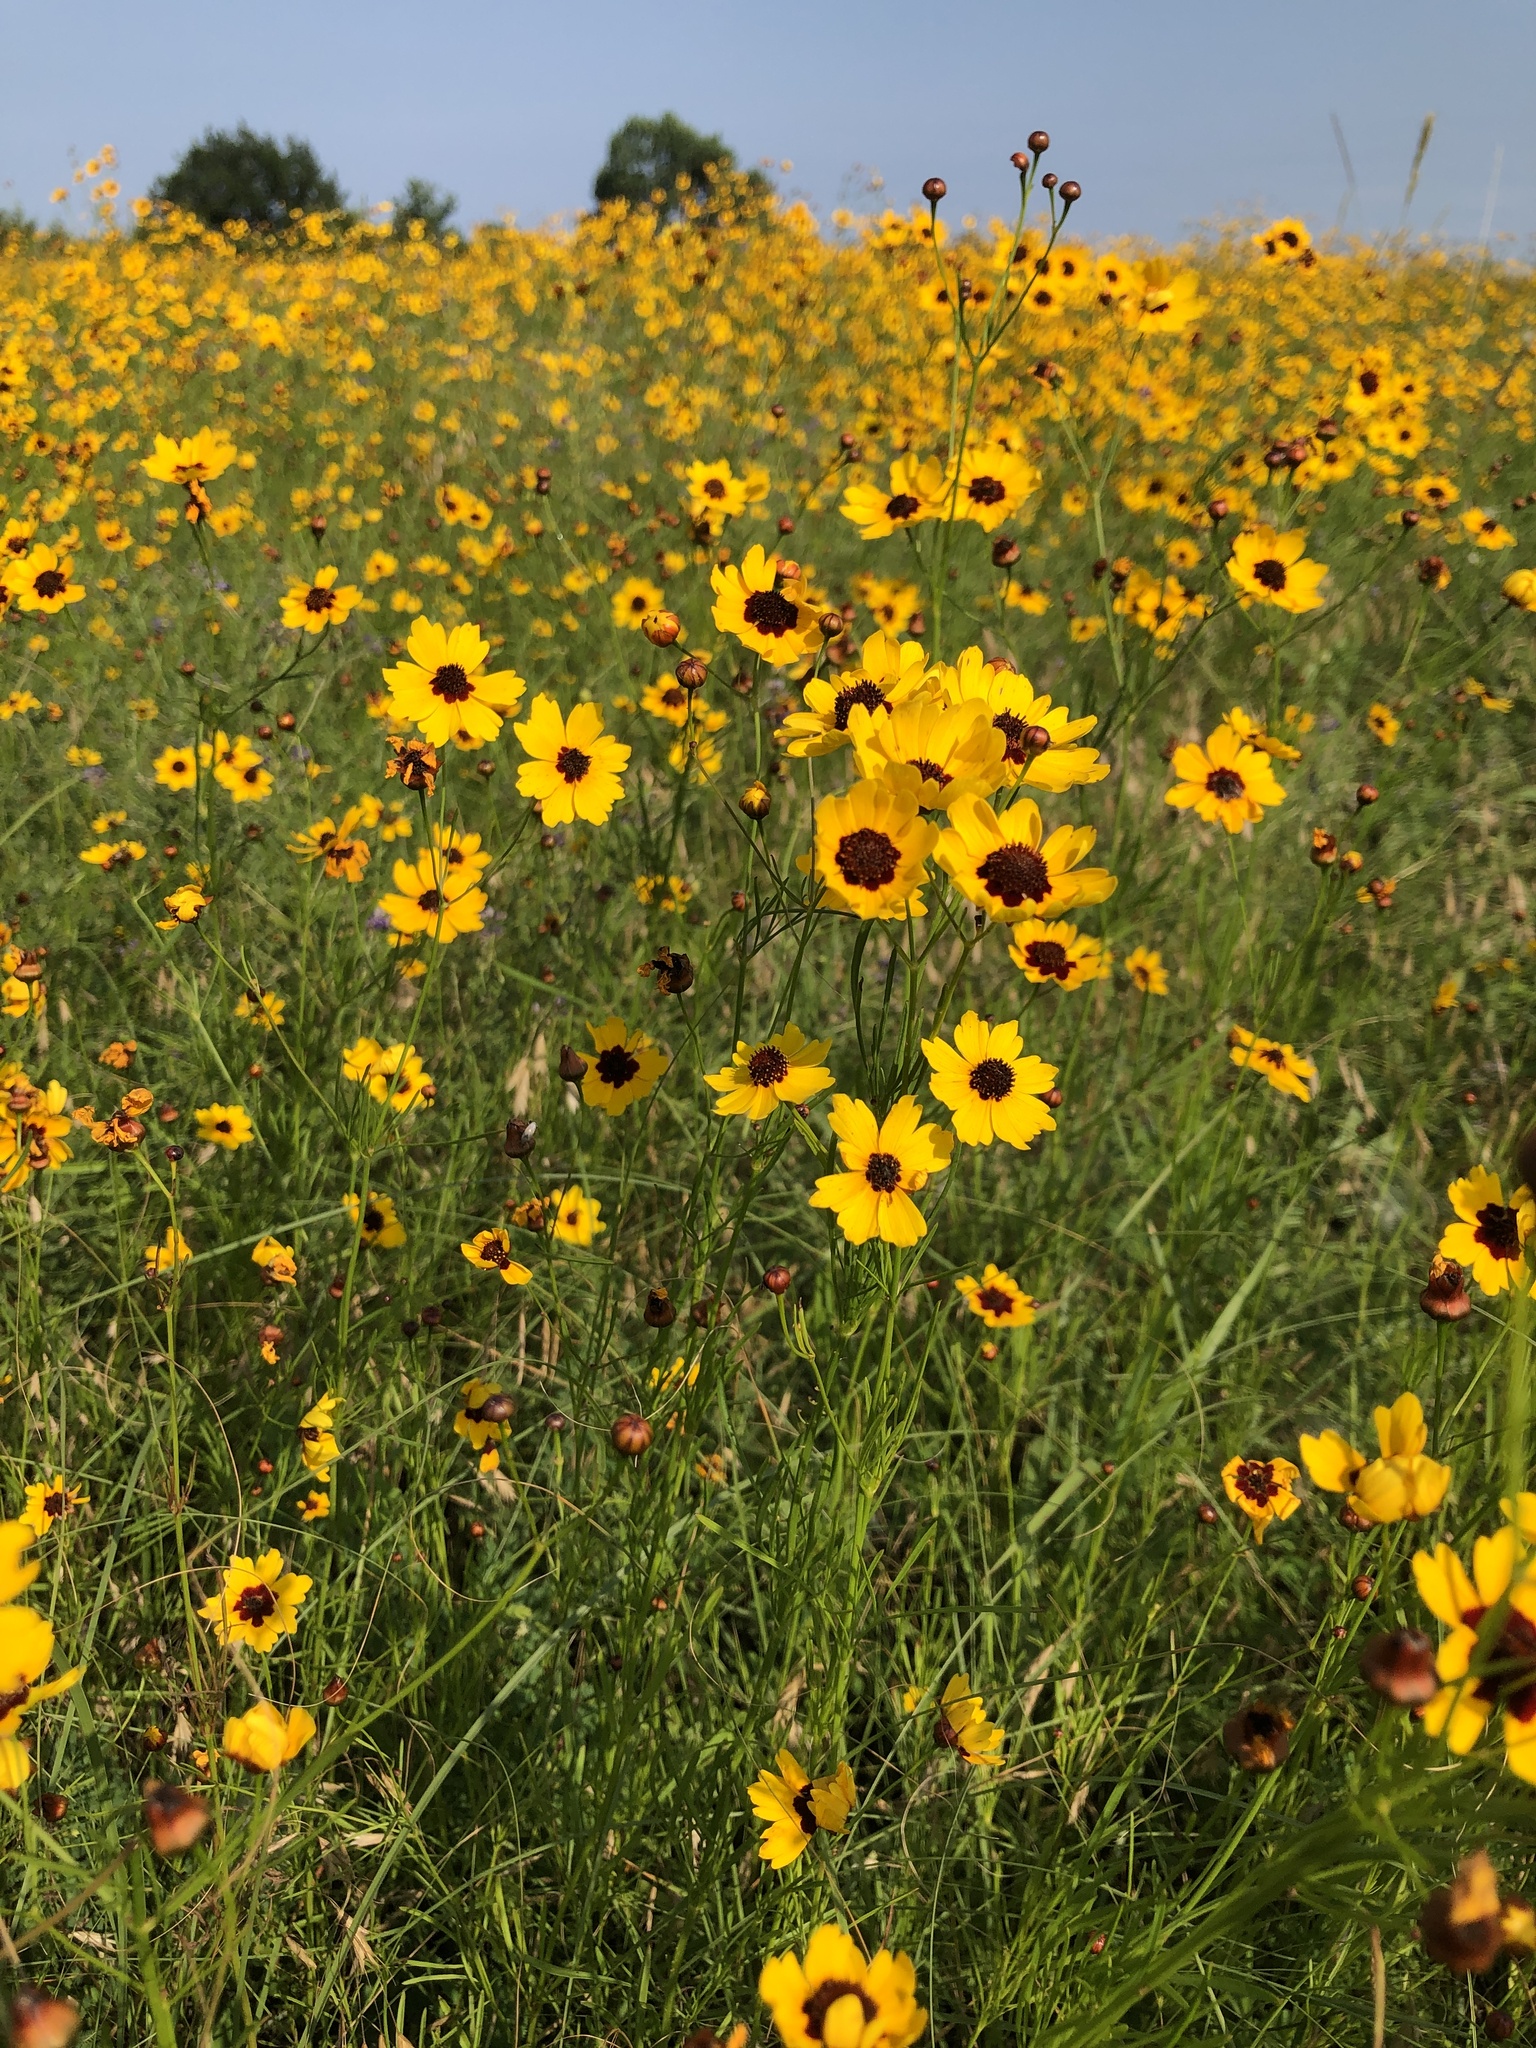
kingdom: Plantae
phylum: Tracheophyta
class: Magnoliopsida
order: Asterales
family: Asteraceae
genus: Coreopsis
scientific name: Coreopsis tinctoria
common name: Garden tickseed
